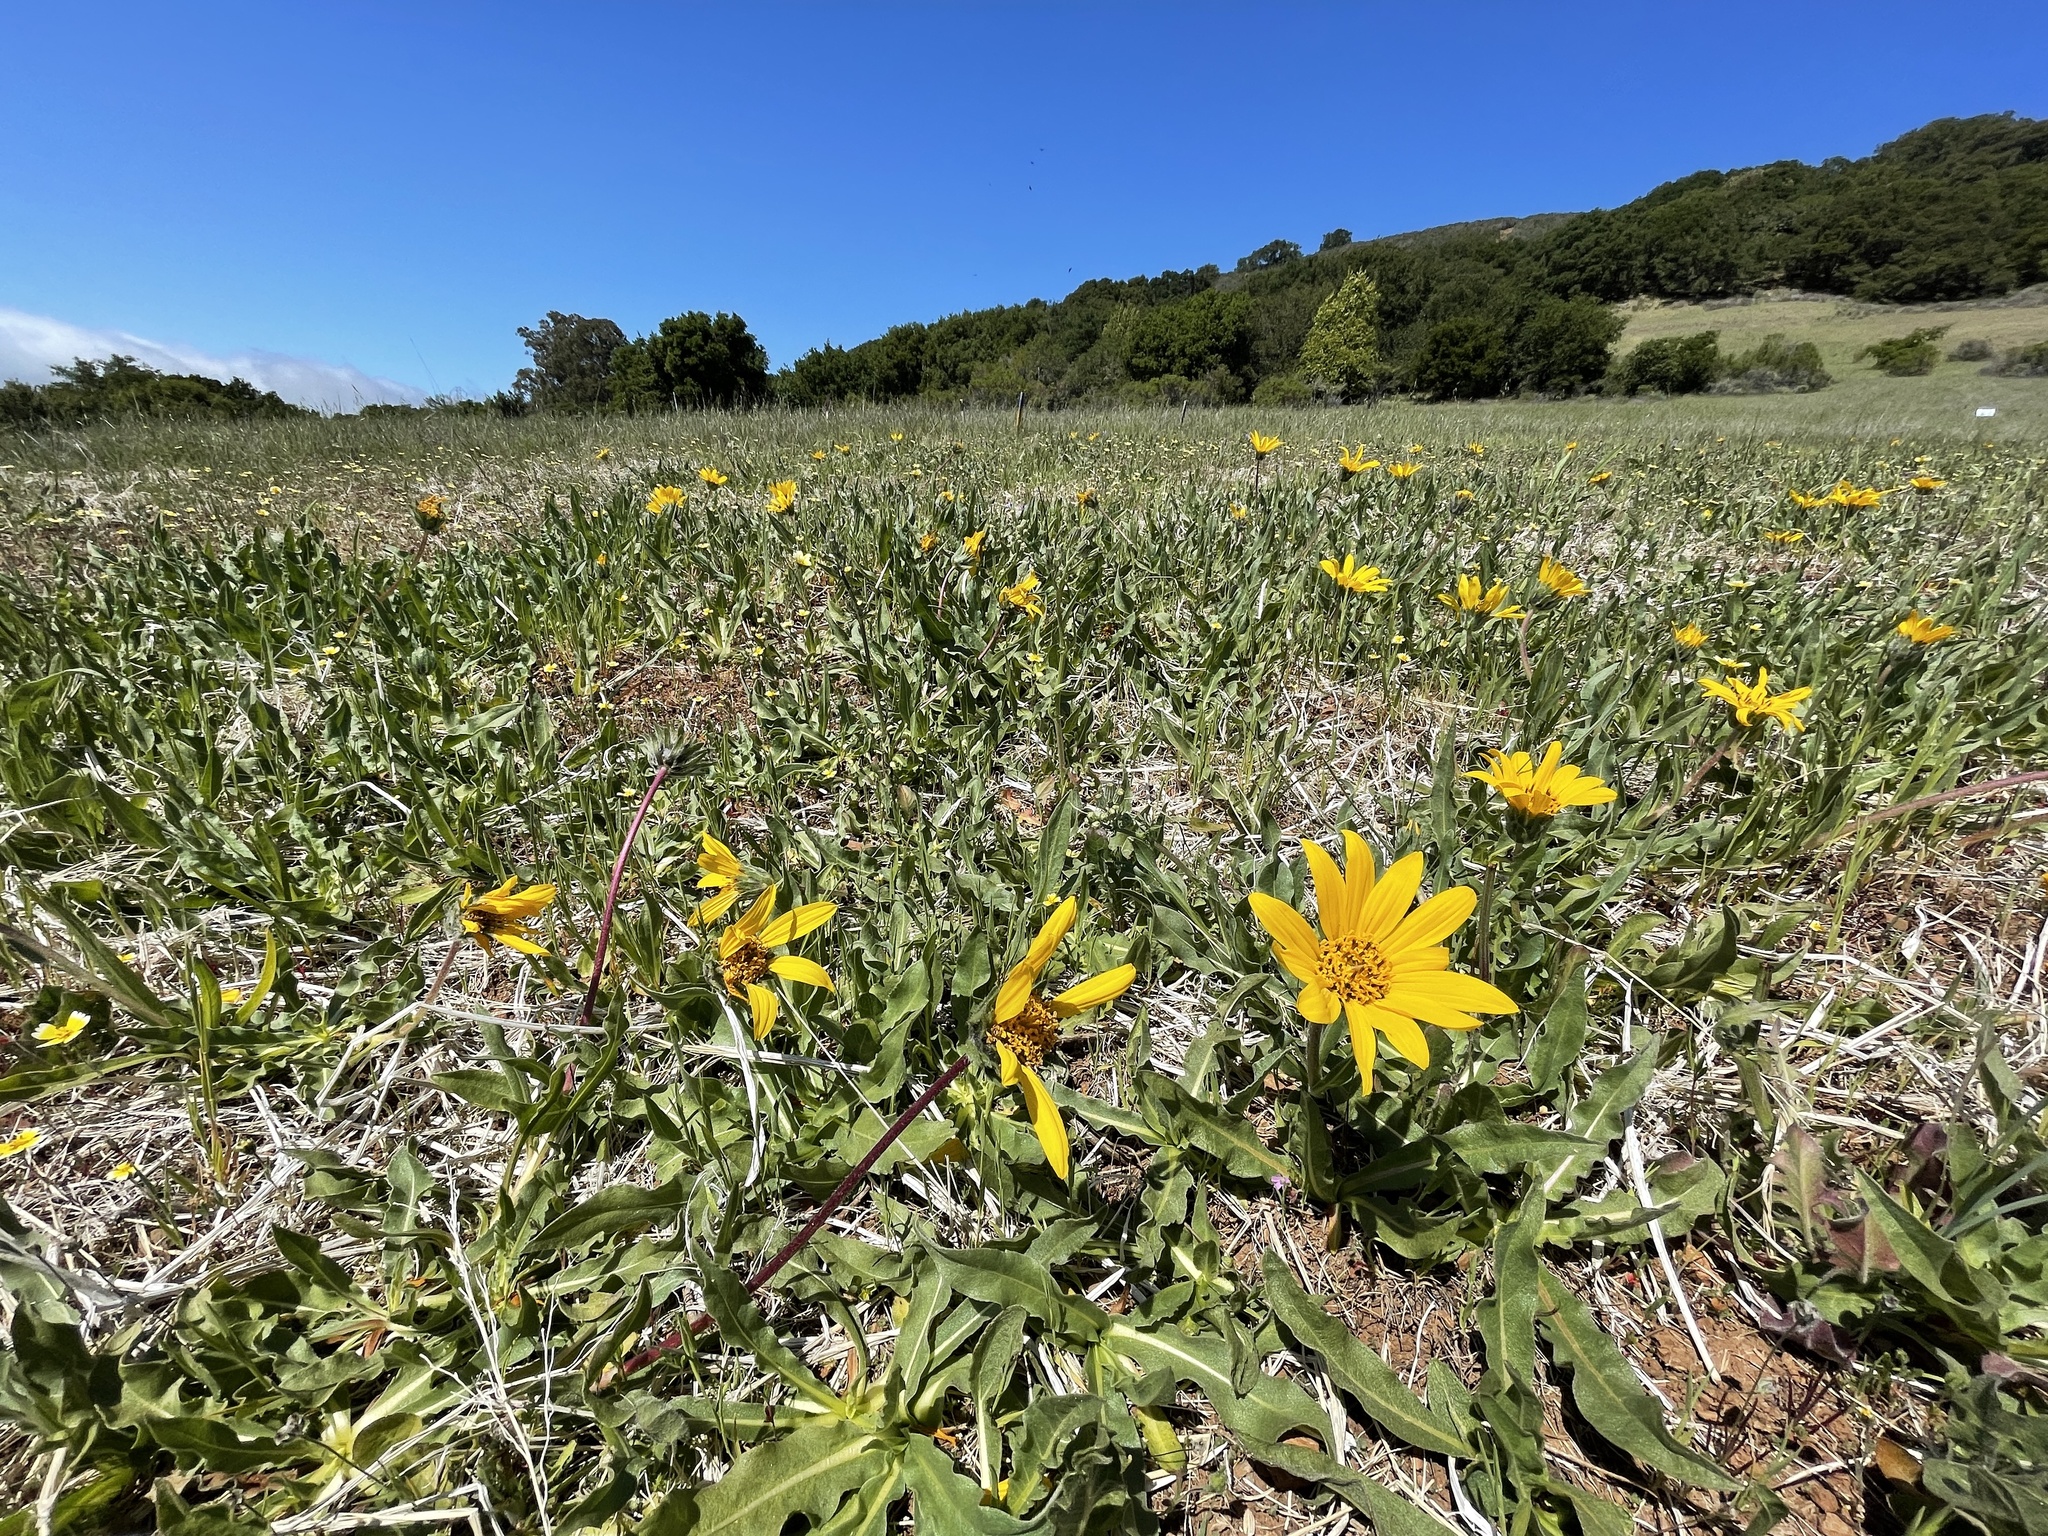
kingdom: Plantae
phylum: Tracheophyta
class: Magnoliopsida
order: Asterales
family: Asteraceae
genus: Wyethia
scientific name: Wyethia angustifolia
